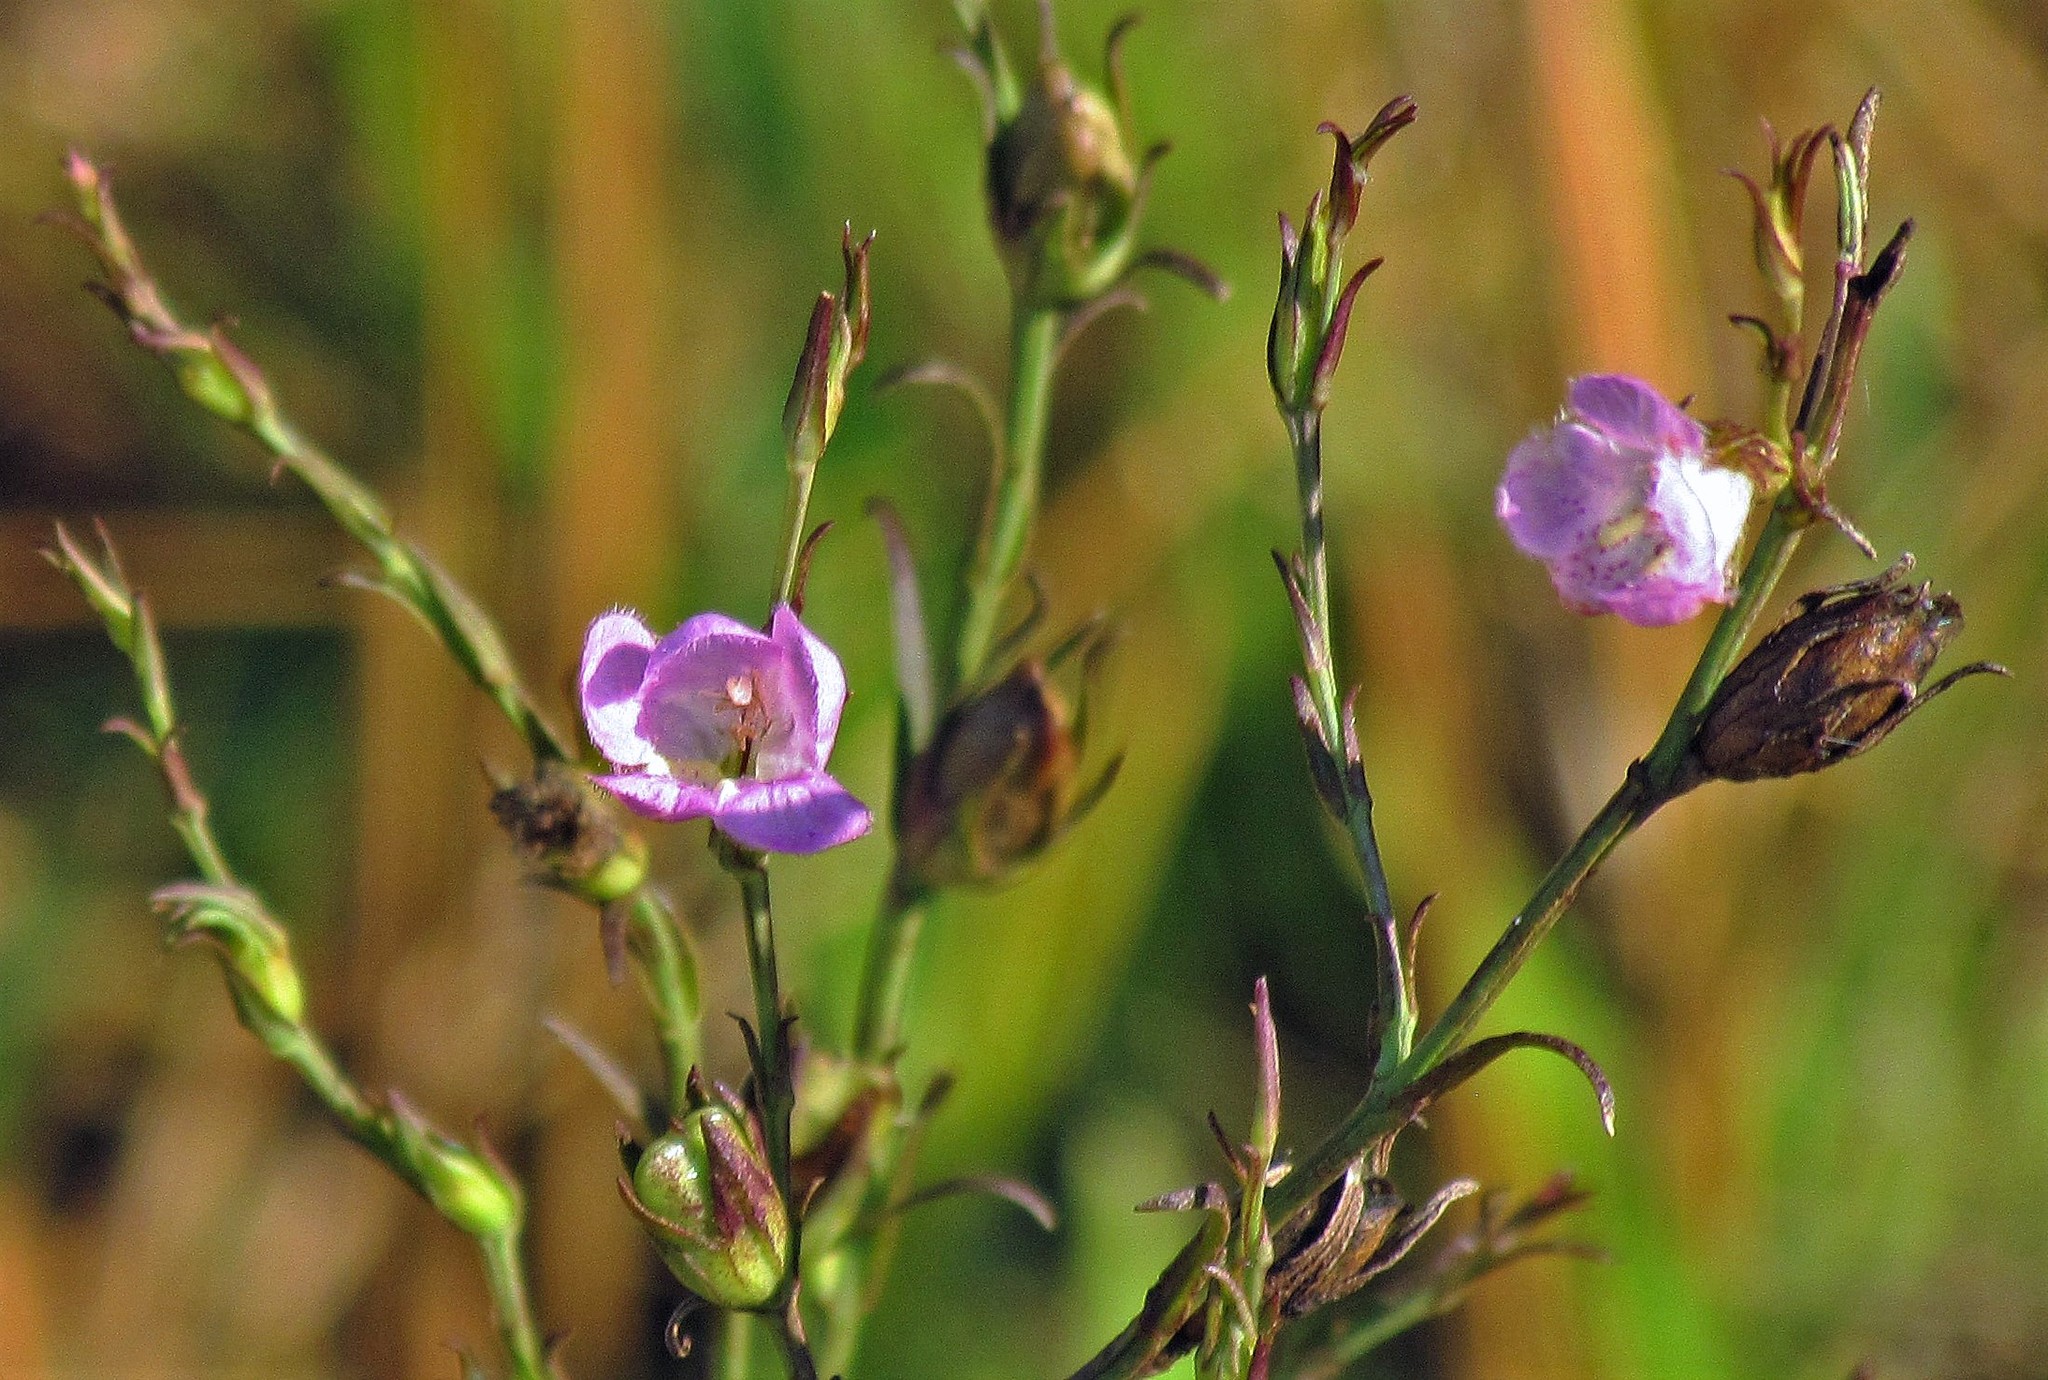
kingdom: Plantae
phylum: Tracheophyta
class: Magnoliopsida
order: Lamiales
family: Orobanchaceae
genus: Agalinis
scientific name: Agalinis communis
